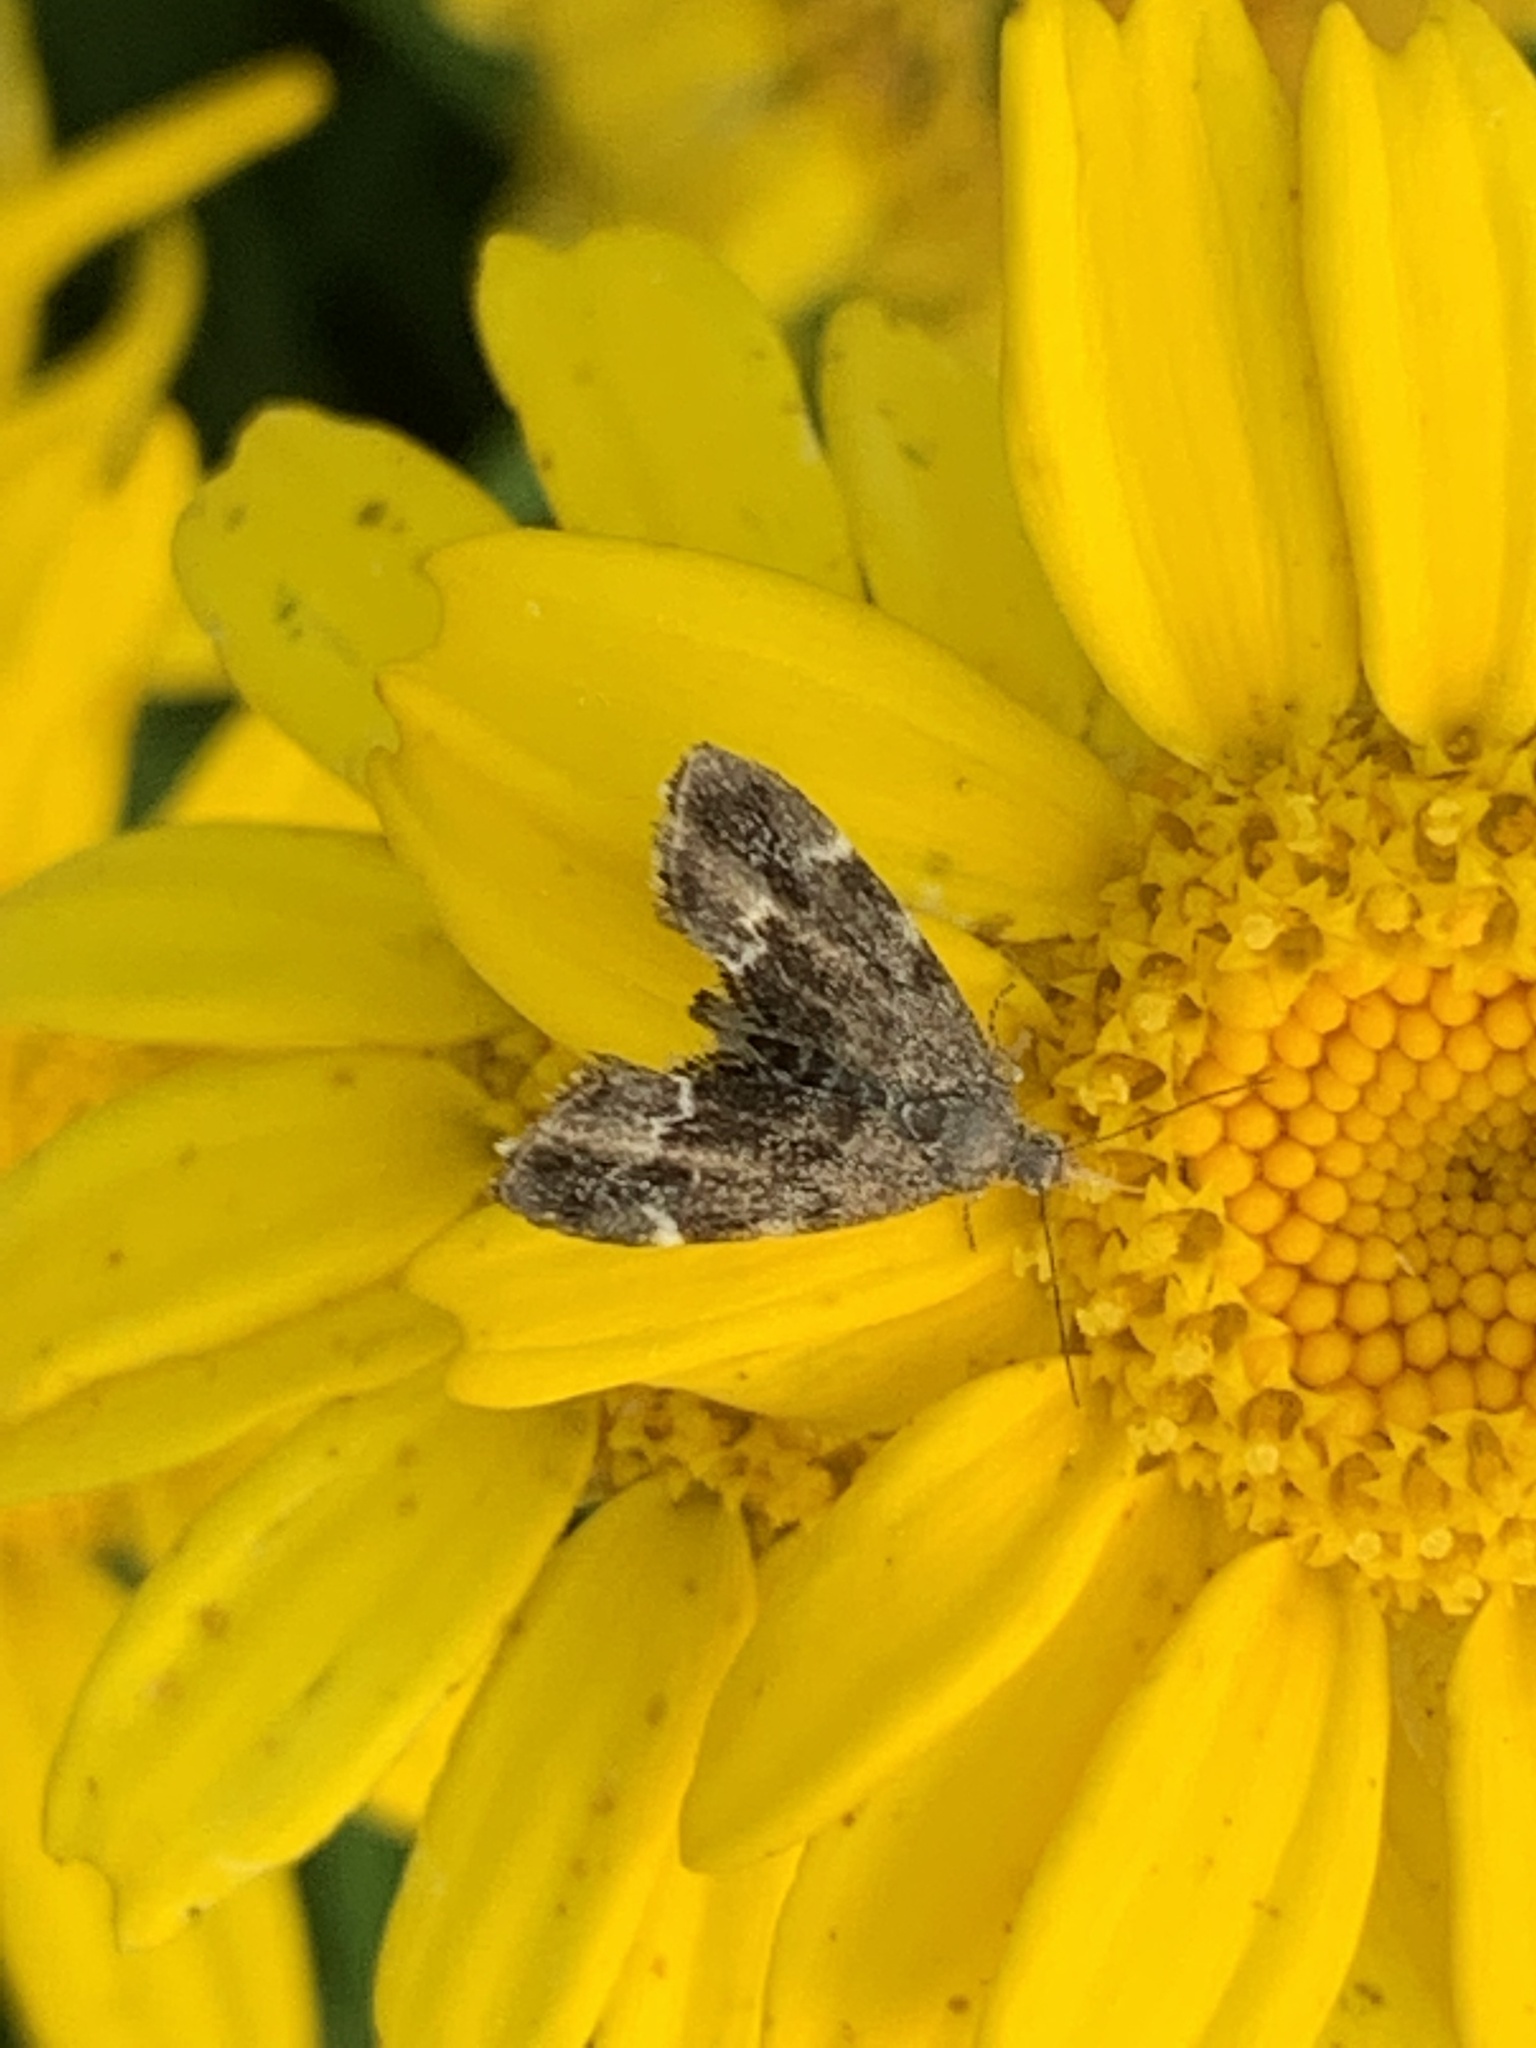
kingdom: Animalia
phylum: Arthropoda
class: Insecta
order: Lepidoptera
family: Choreutidae
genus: Anthophila
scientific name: Anthophila fabriciana
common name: Nettle-tap
